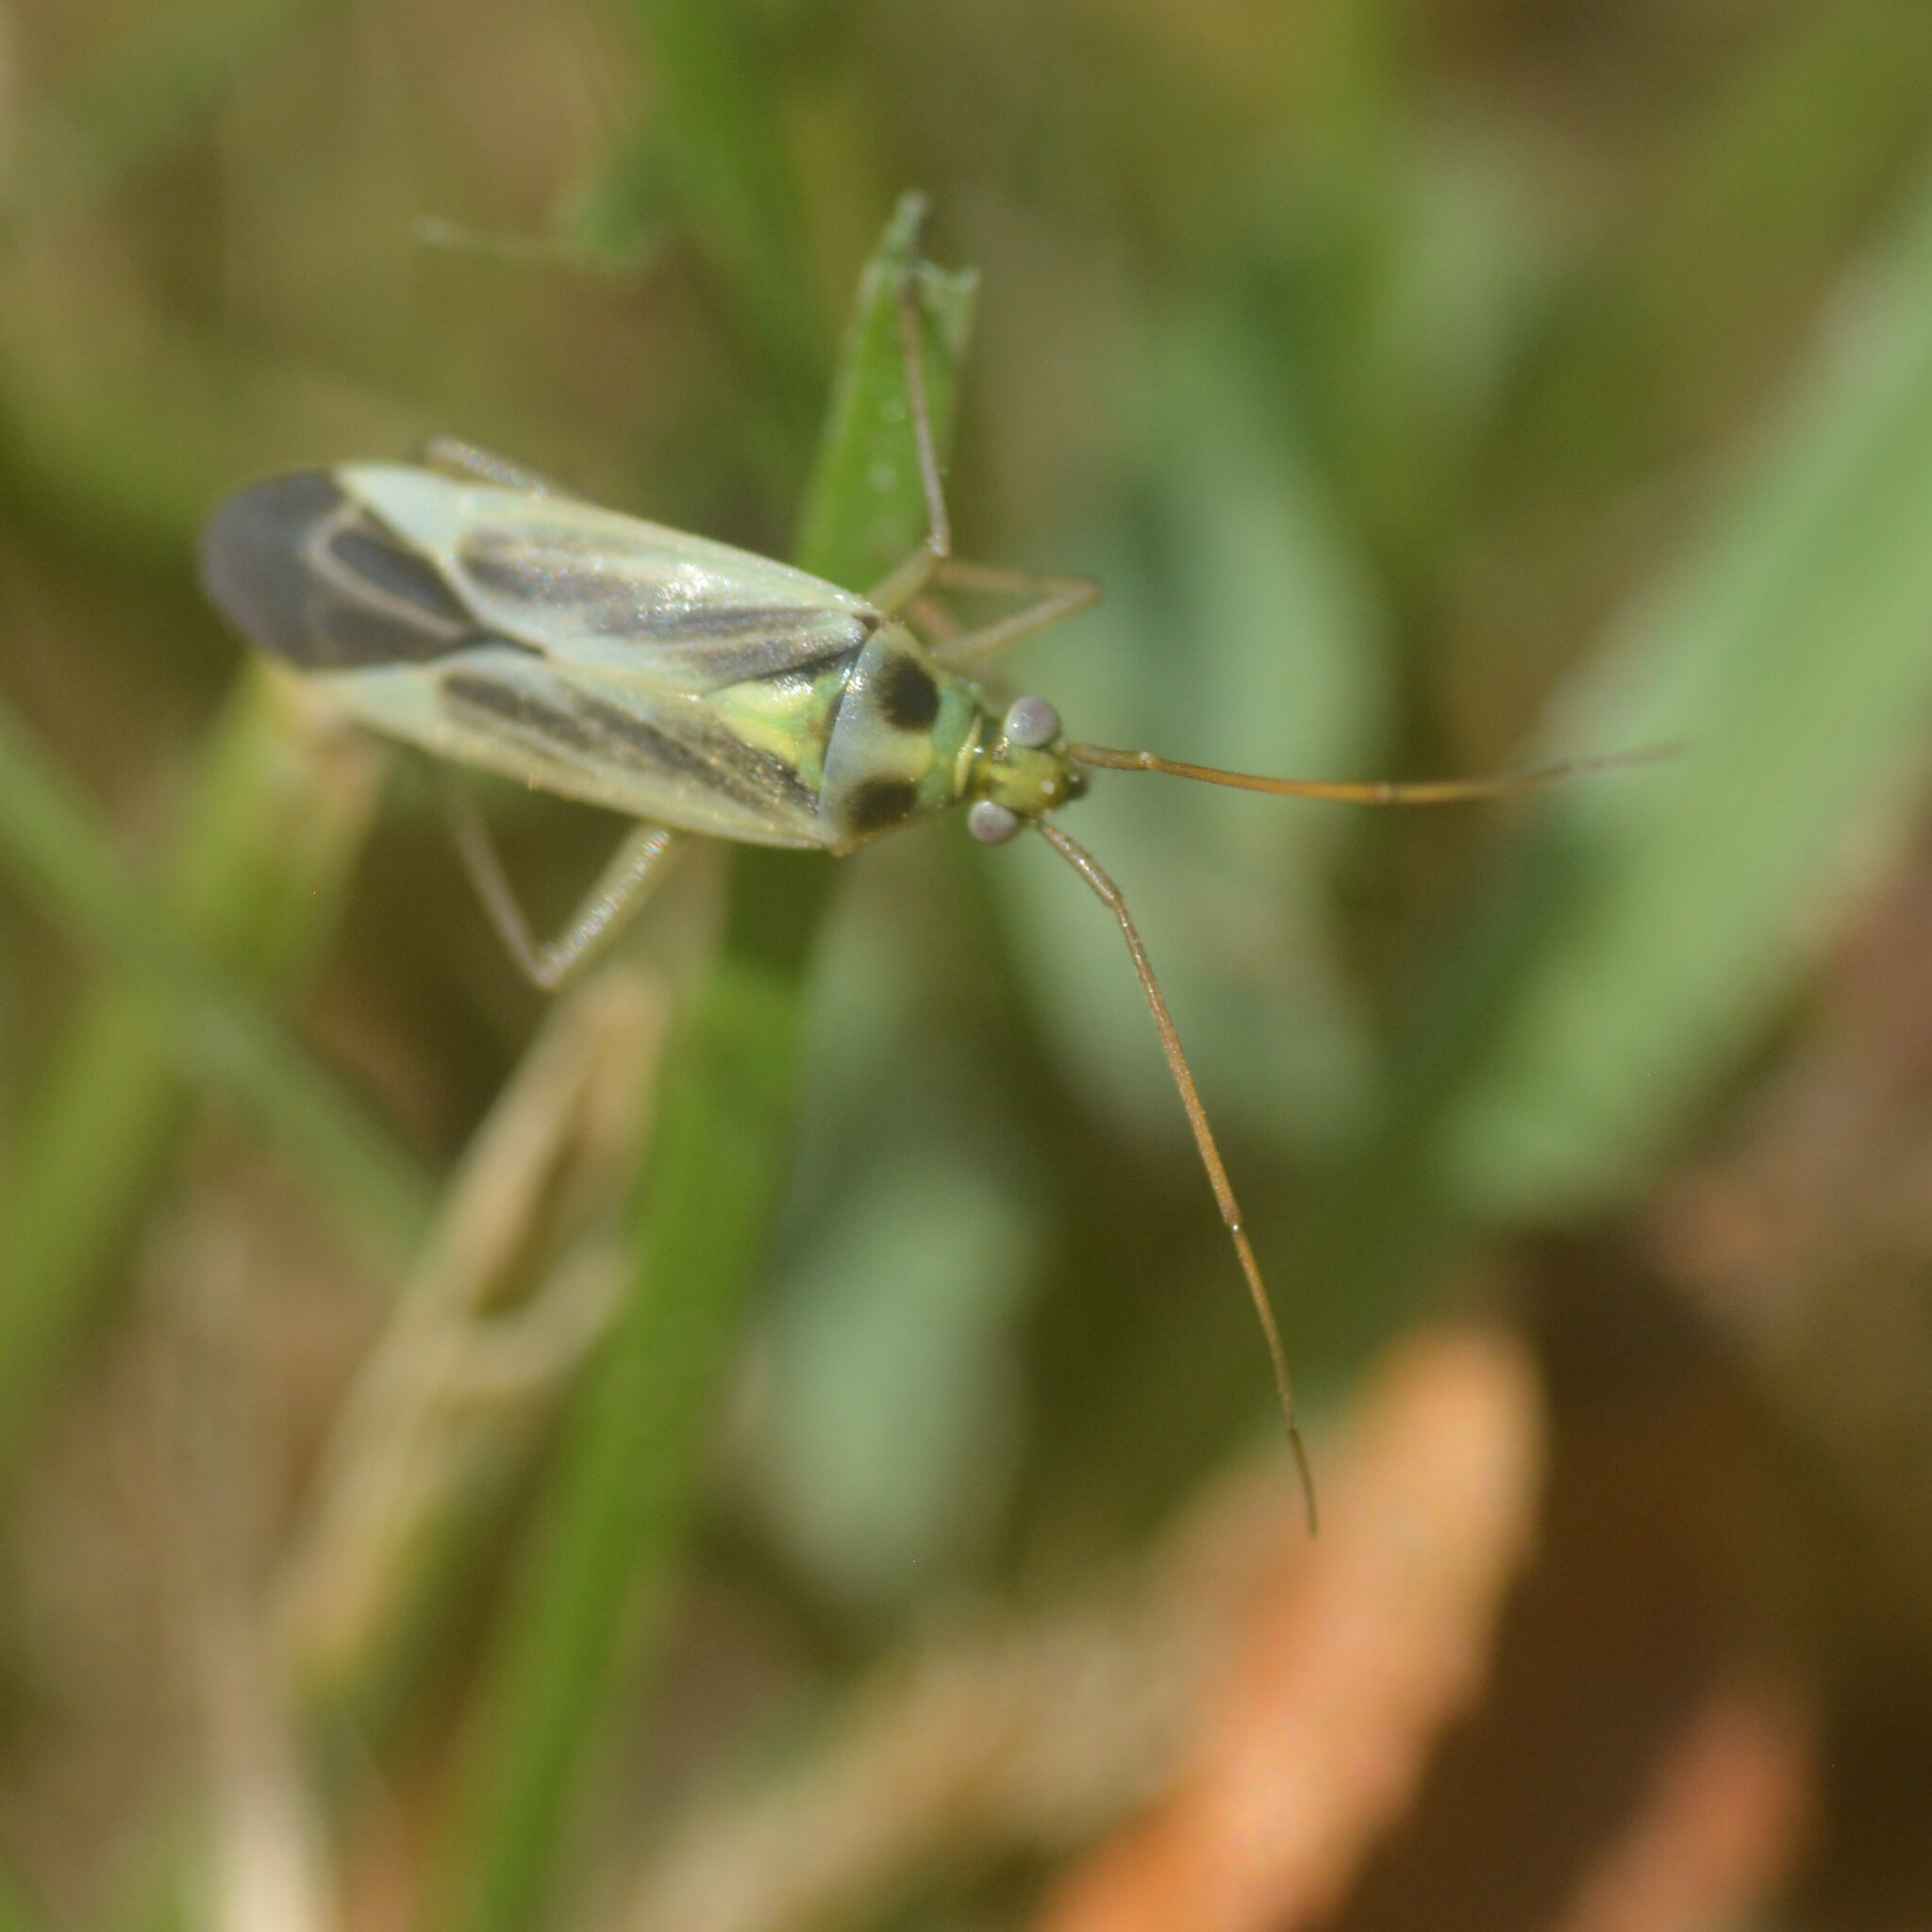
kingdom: Animalia
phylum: Arthropoda
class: Insecta
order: Hemiptera
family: Miridae
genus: Stenotus
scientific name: Stenotus binotatus
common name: Plant bug
